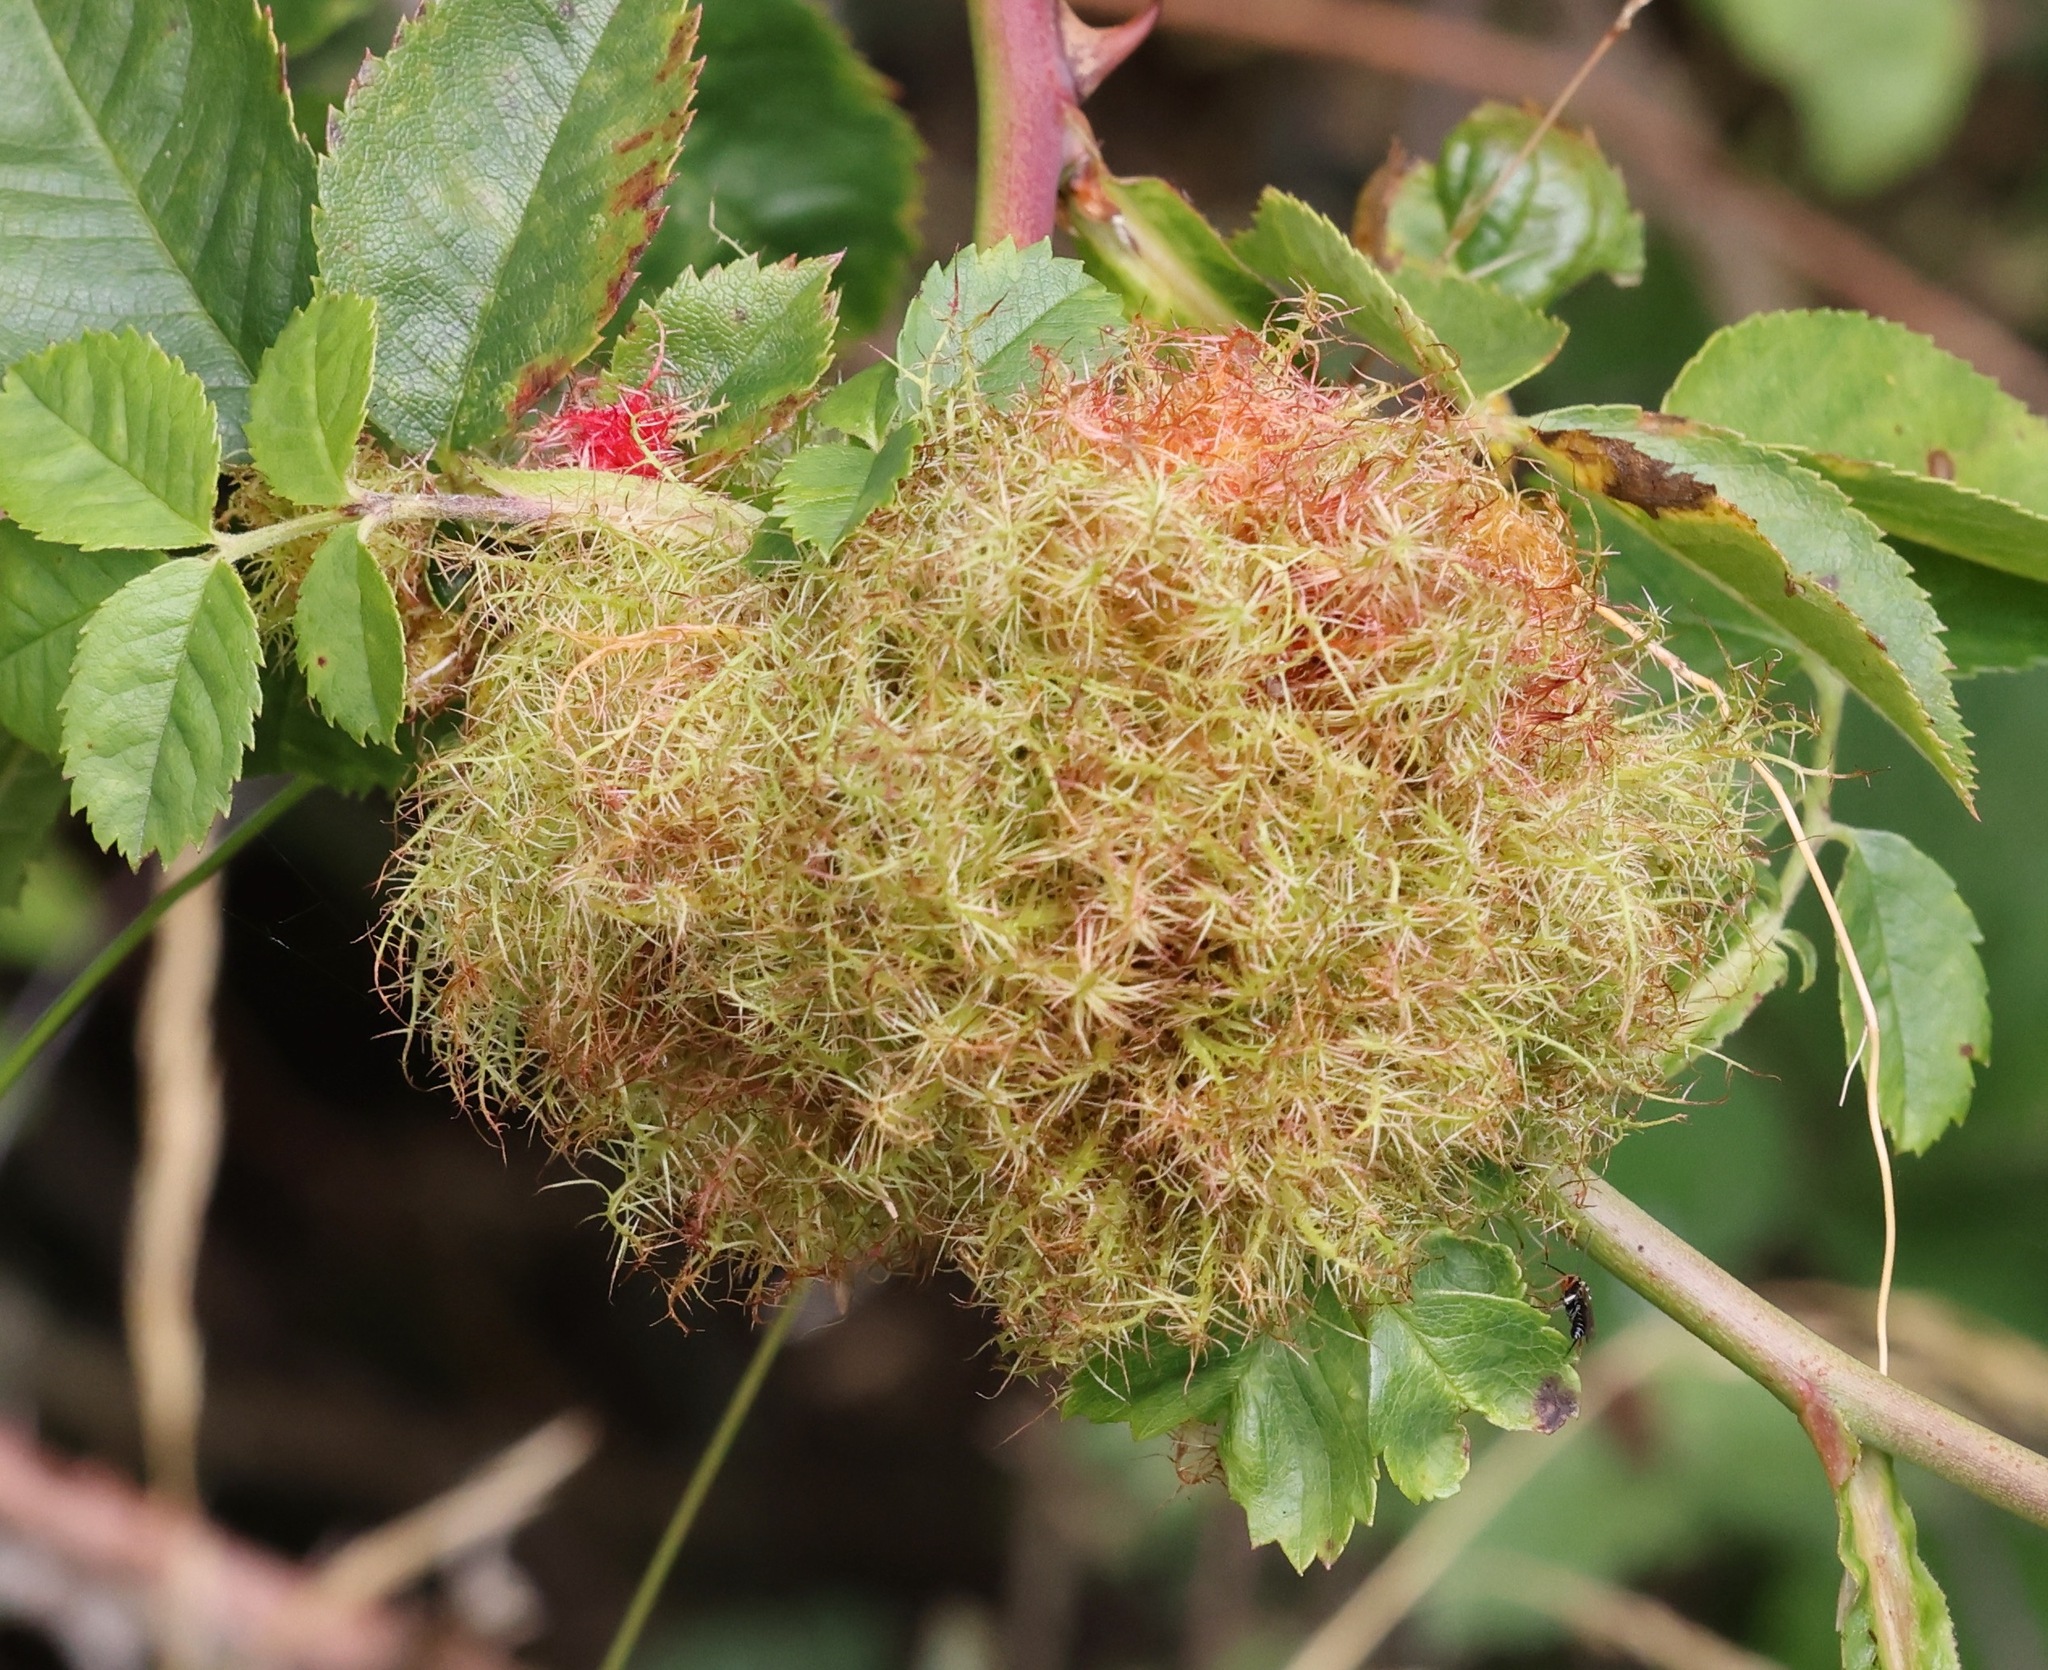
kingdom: Animalia
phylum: Arthropoda
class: Insecta
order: Hymenoptera
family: Cynipidae
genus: Diplolepis
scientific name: Diplolepis rosae
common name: Bedeguar gall
